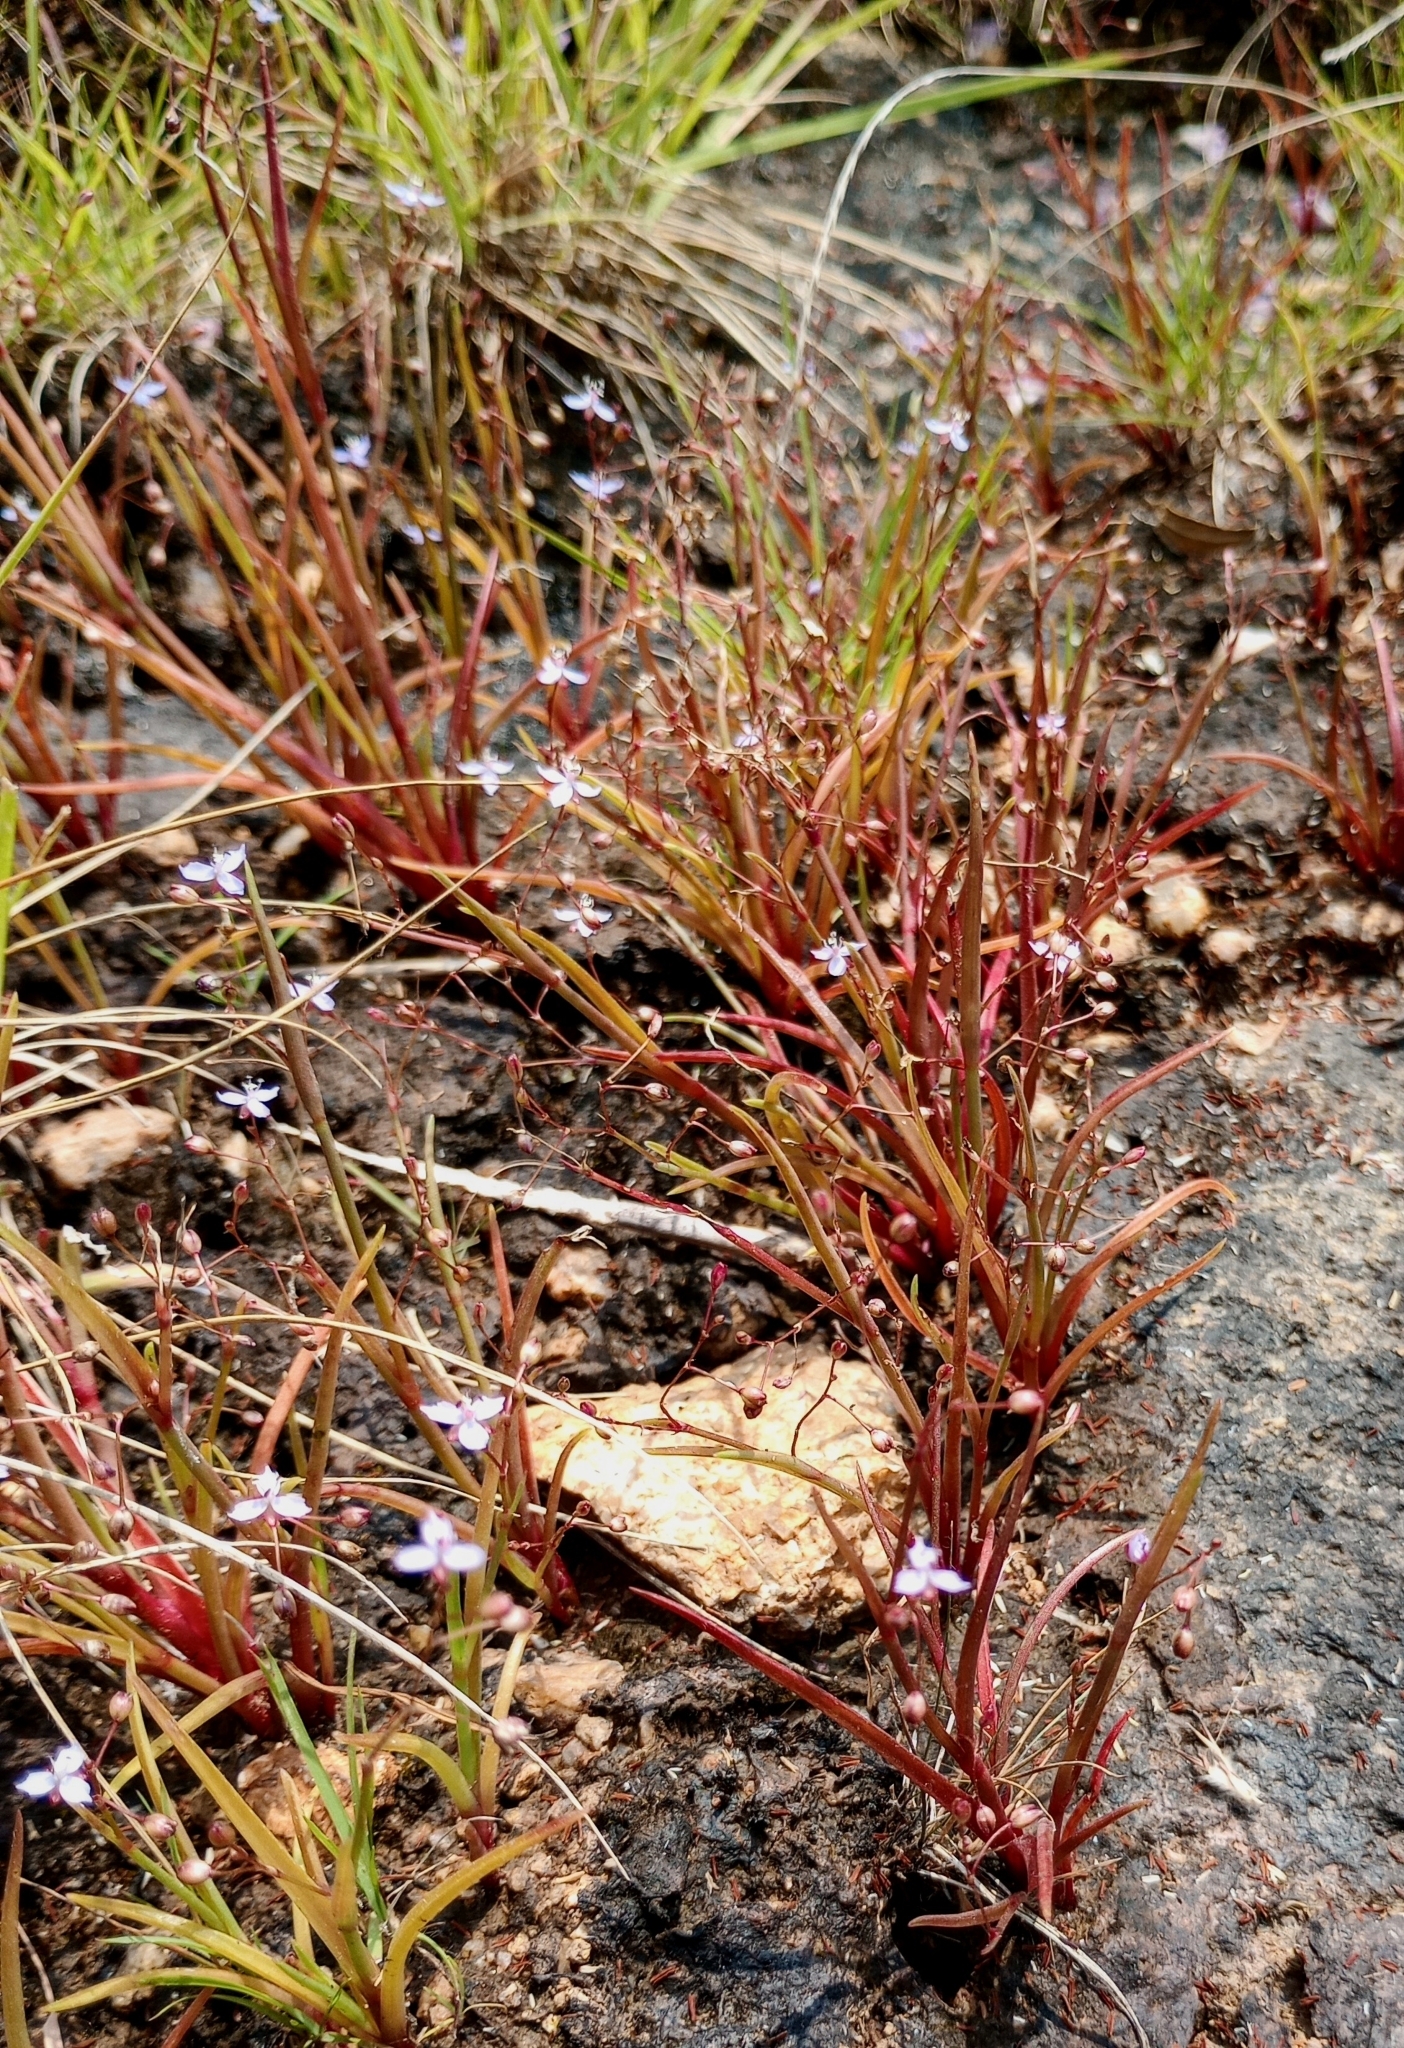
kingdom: Plantae
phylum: Tracheophyta
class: Liliopsida
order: Commelinales
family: Commelinaceae
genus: Murdannia
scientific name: Murdannia semiteres
